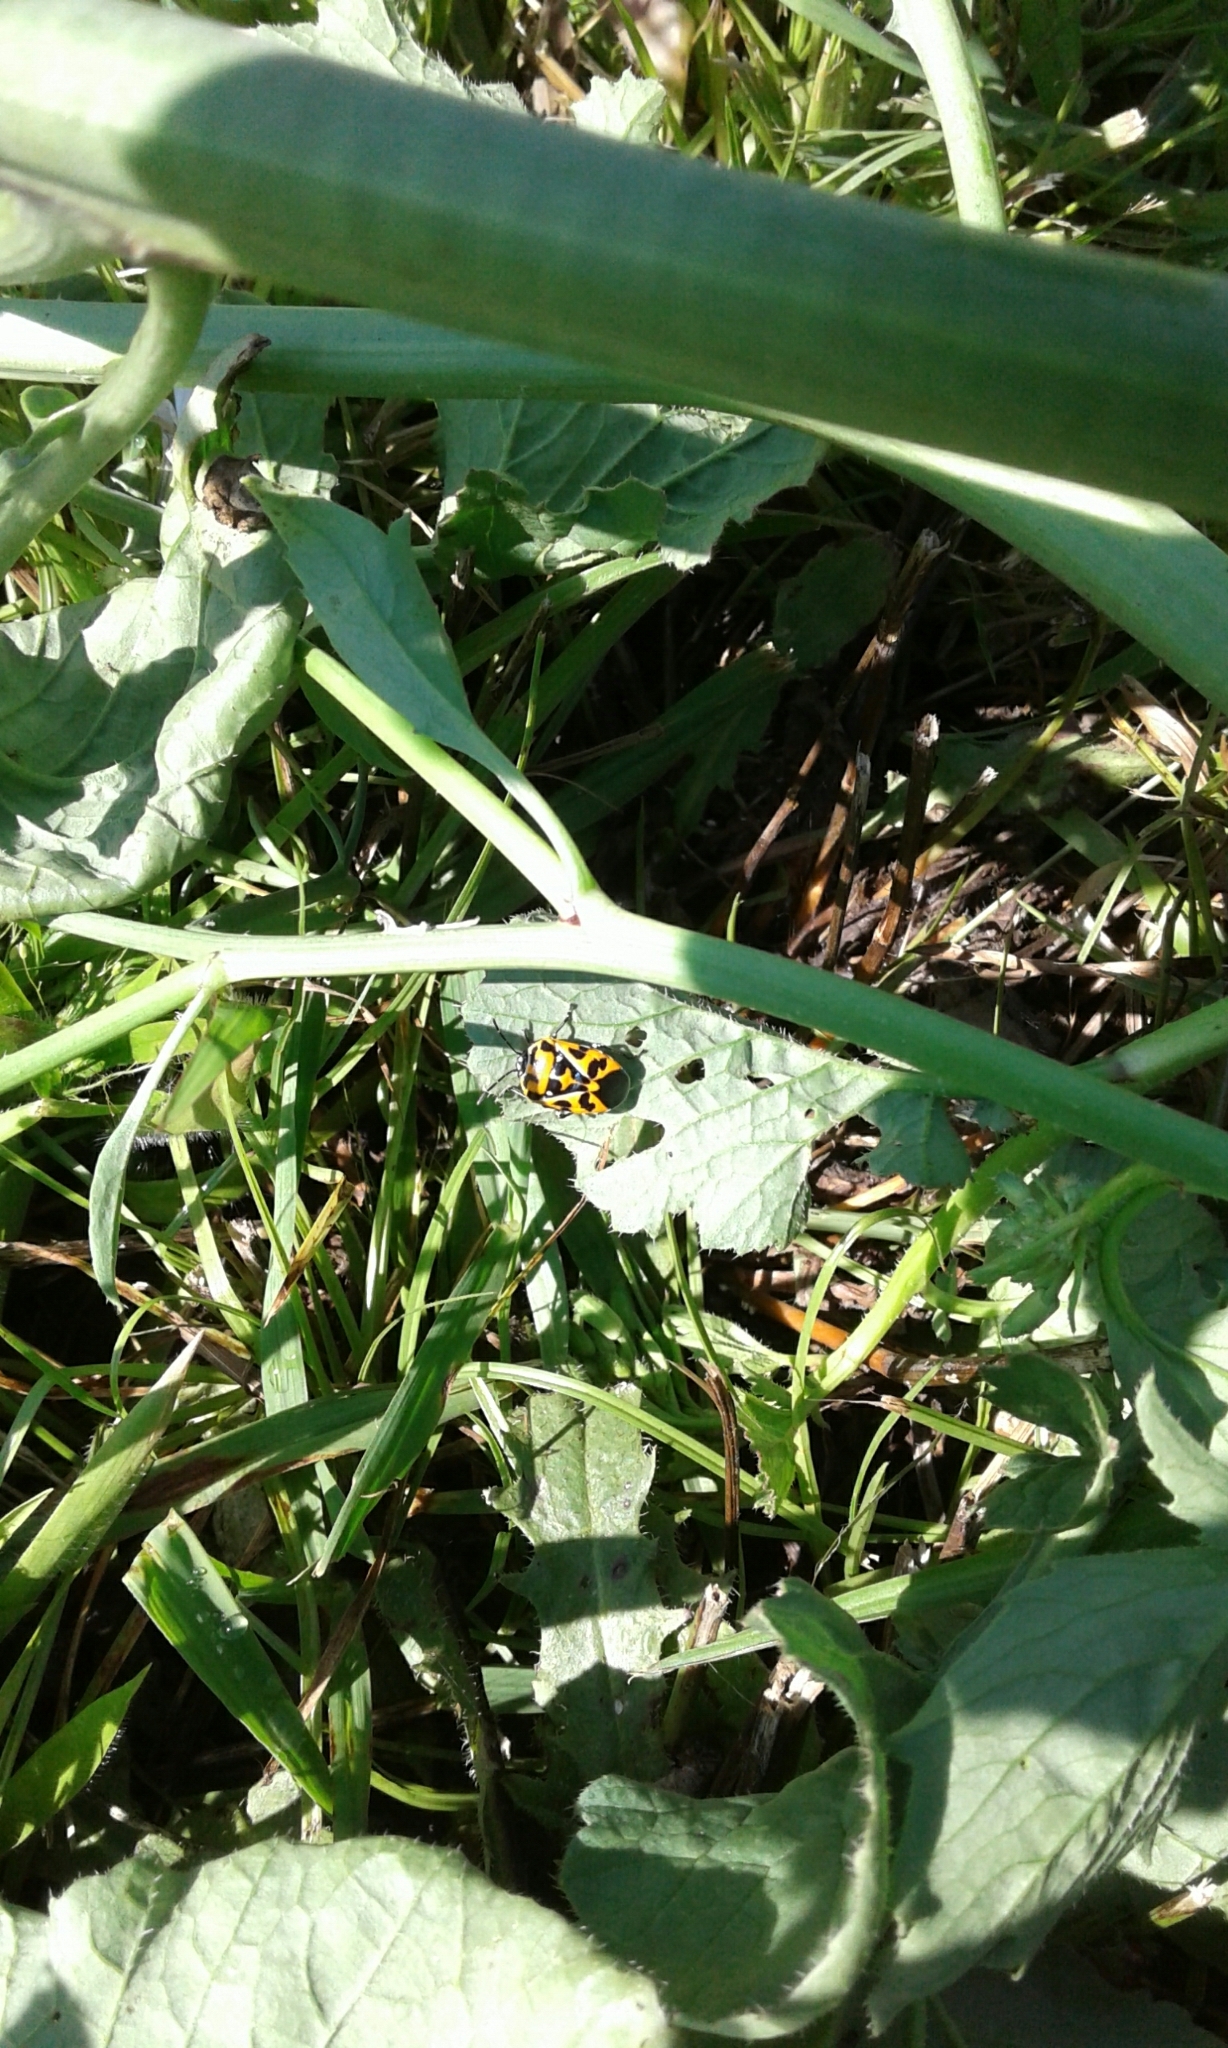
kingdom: Animalia
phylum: Arthropoda
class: Insecta
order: Hemiptera
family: Pentatomidae
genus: Murgantia
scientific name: Murgantia histrionica
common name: Harlequin bug
